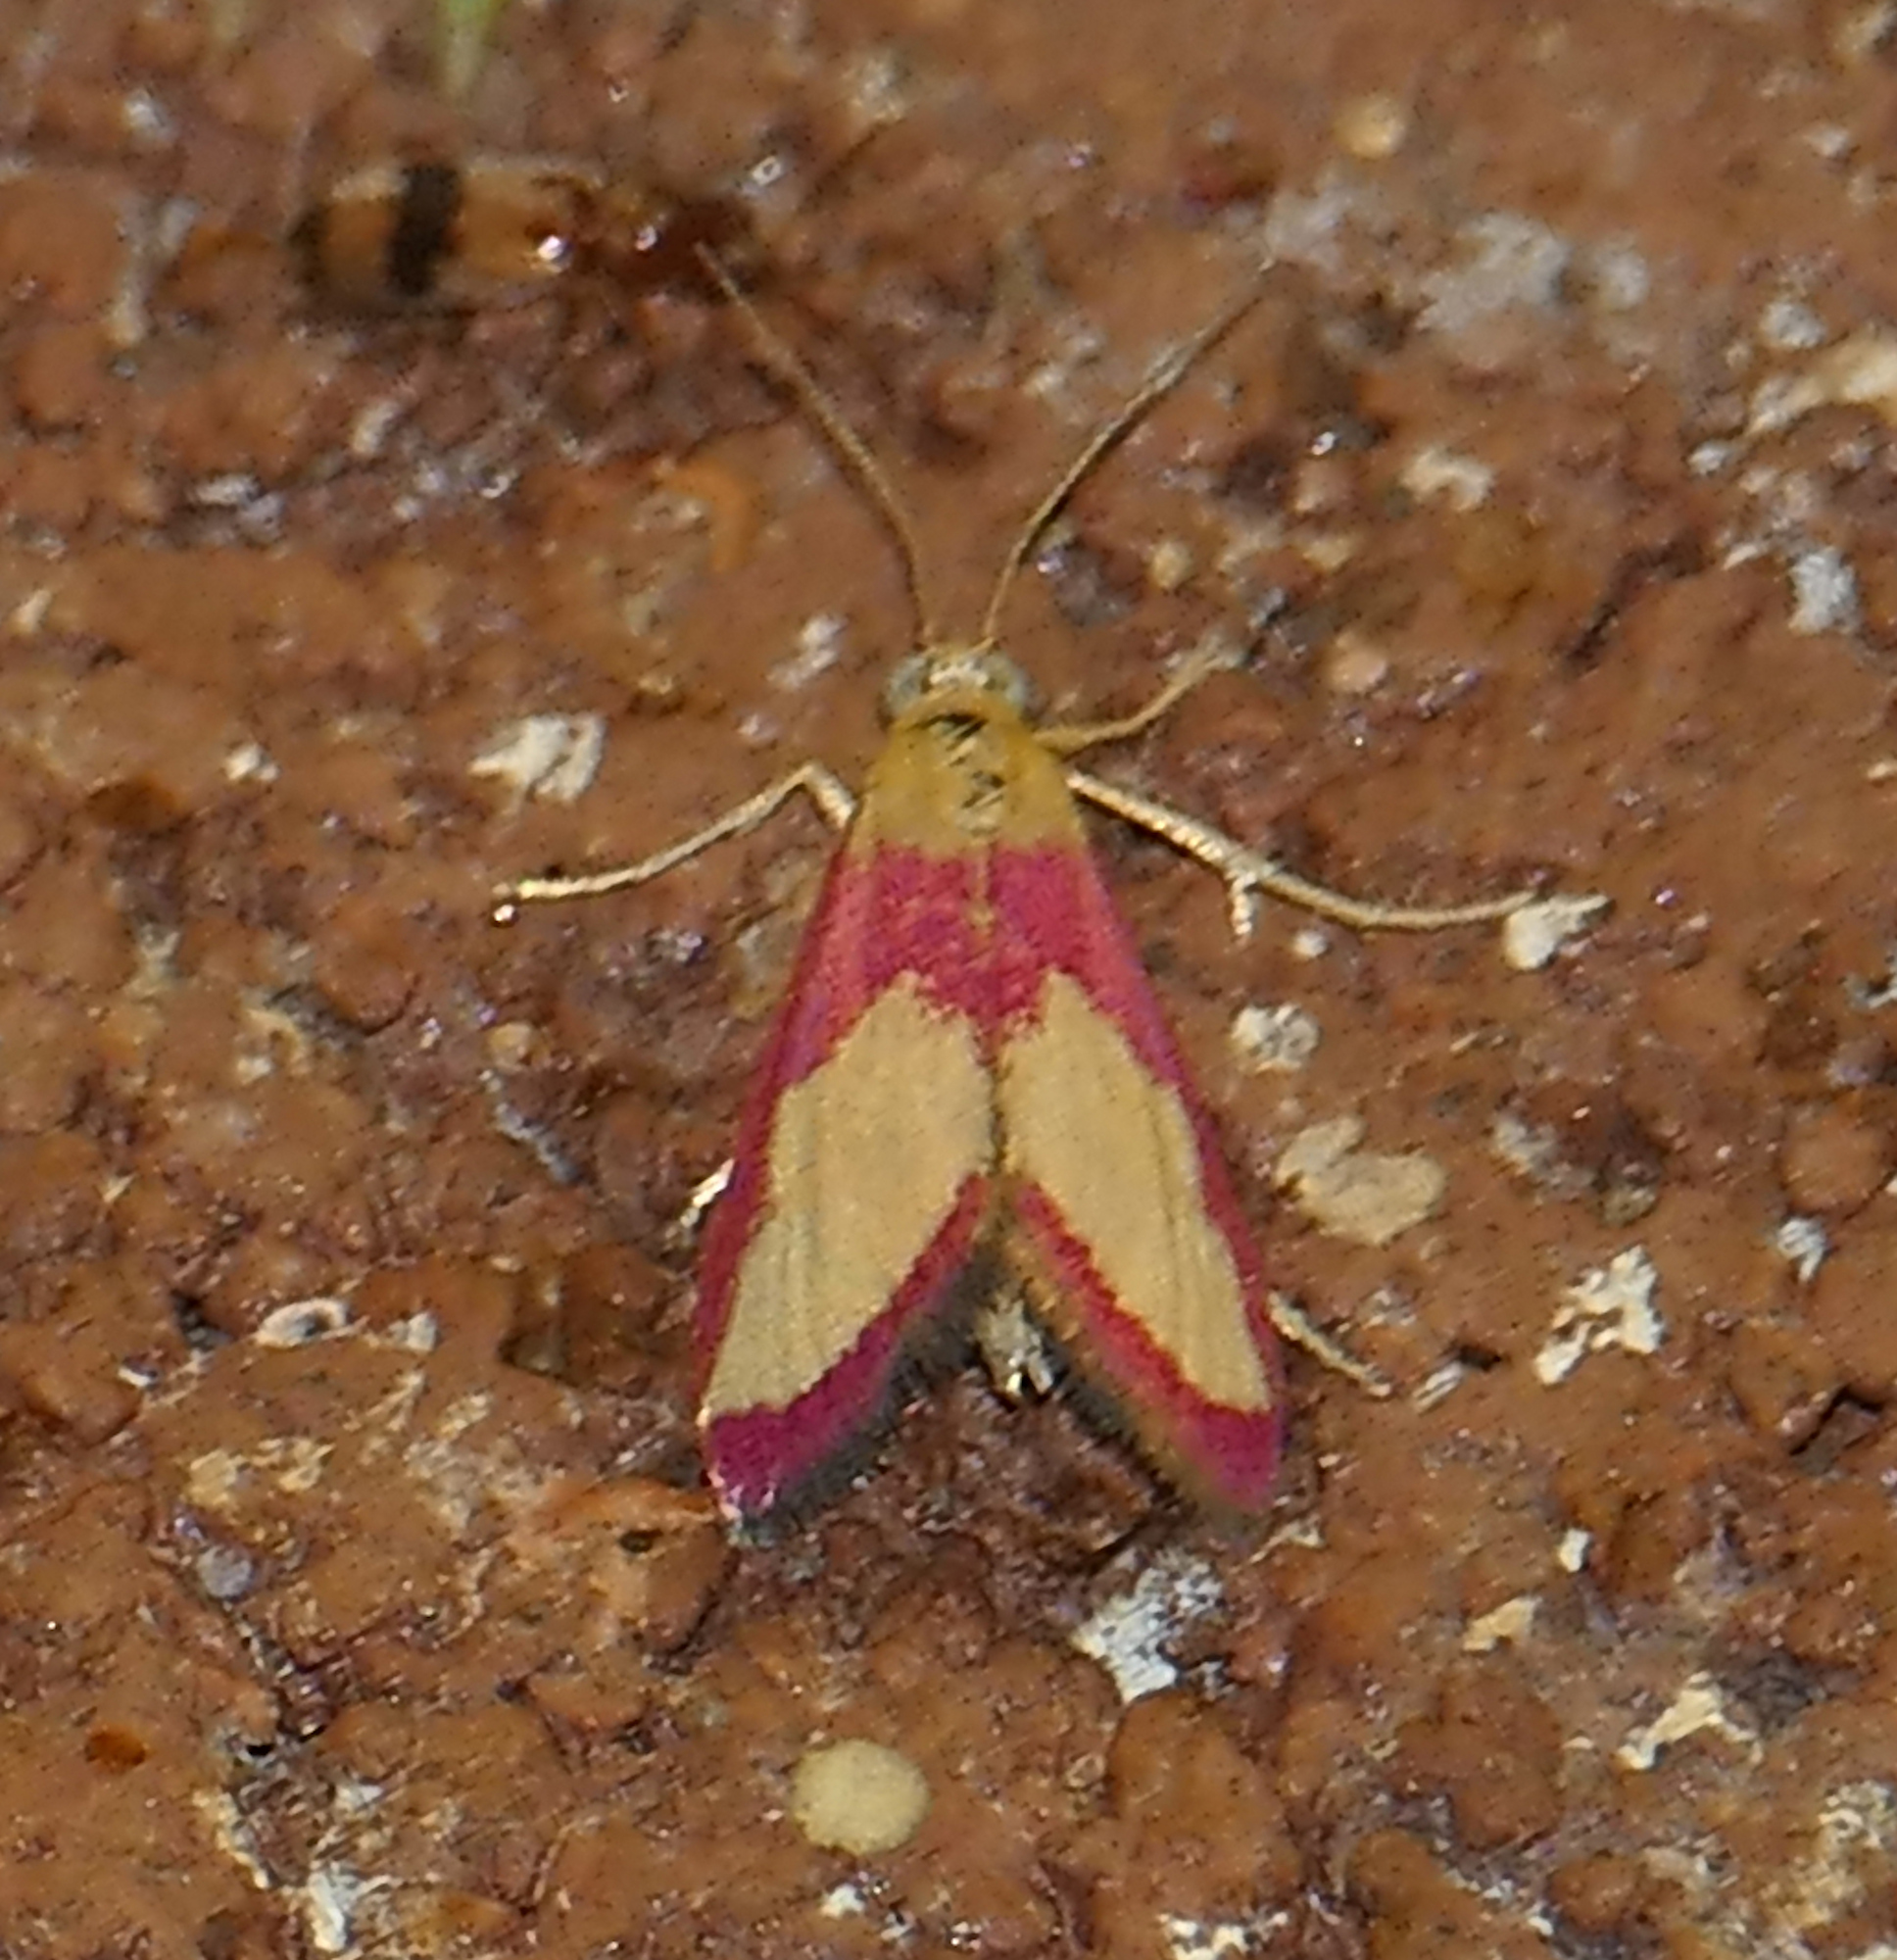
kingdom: Animalia
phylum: Arthropoda
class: Insecta
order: Lepidoptera
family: Crambidae
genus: Mojavia
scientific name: Mojavia achemonalis
